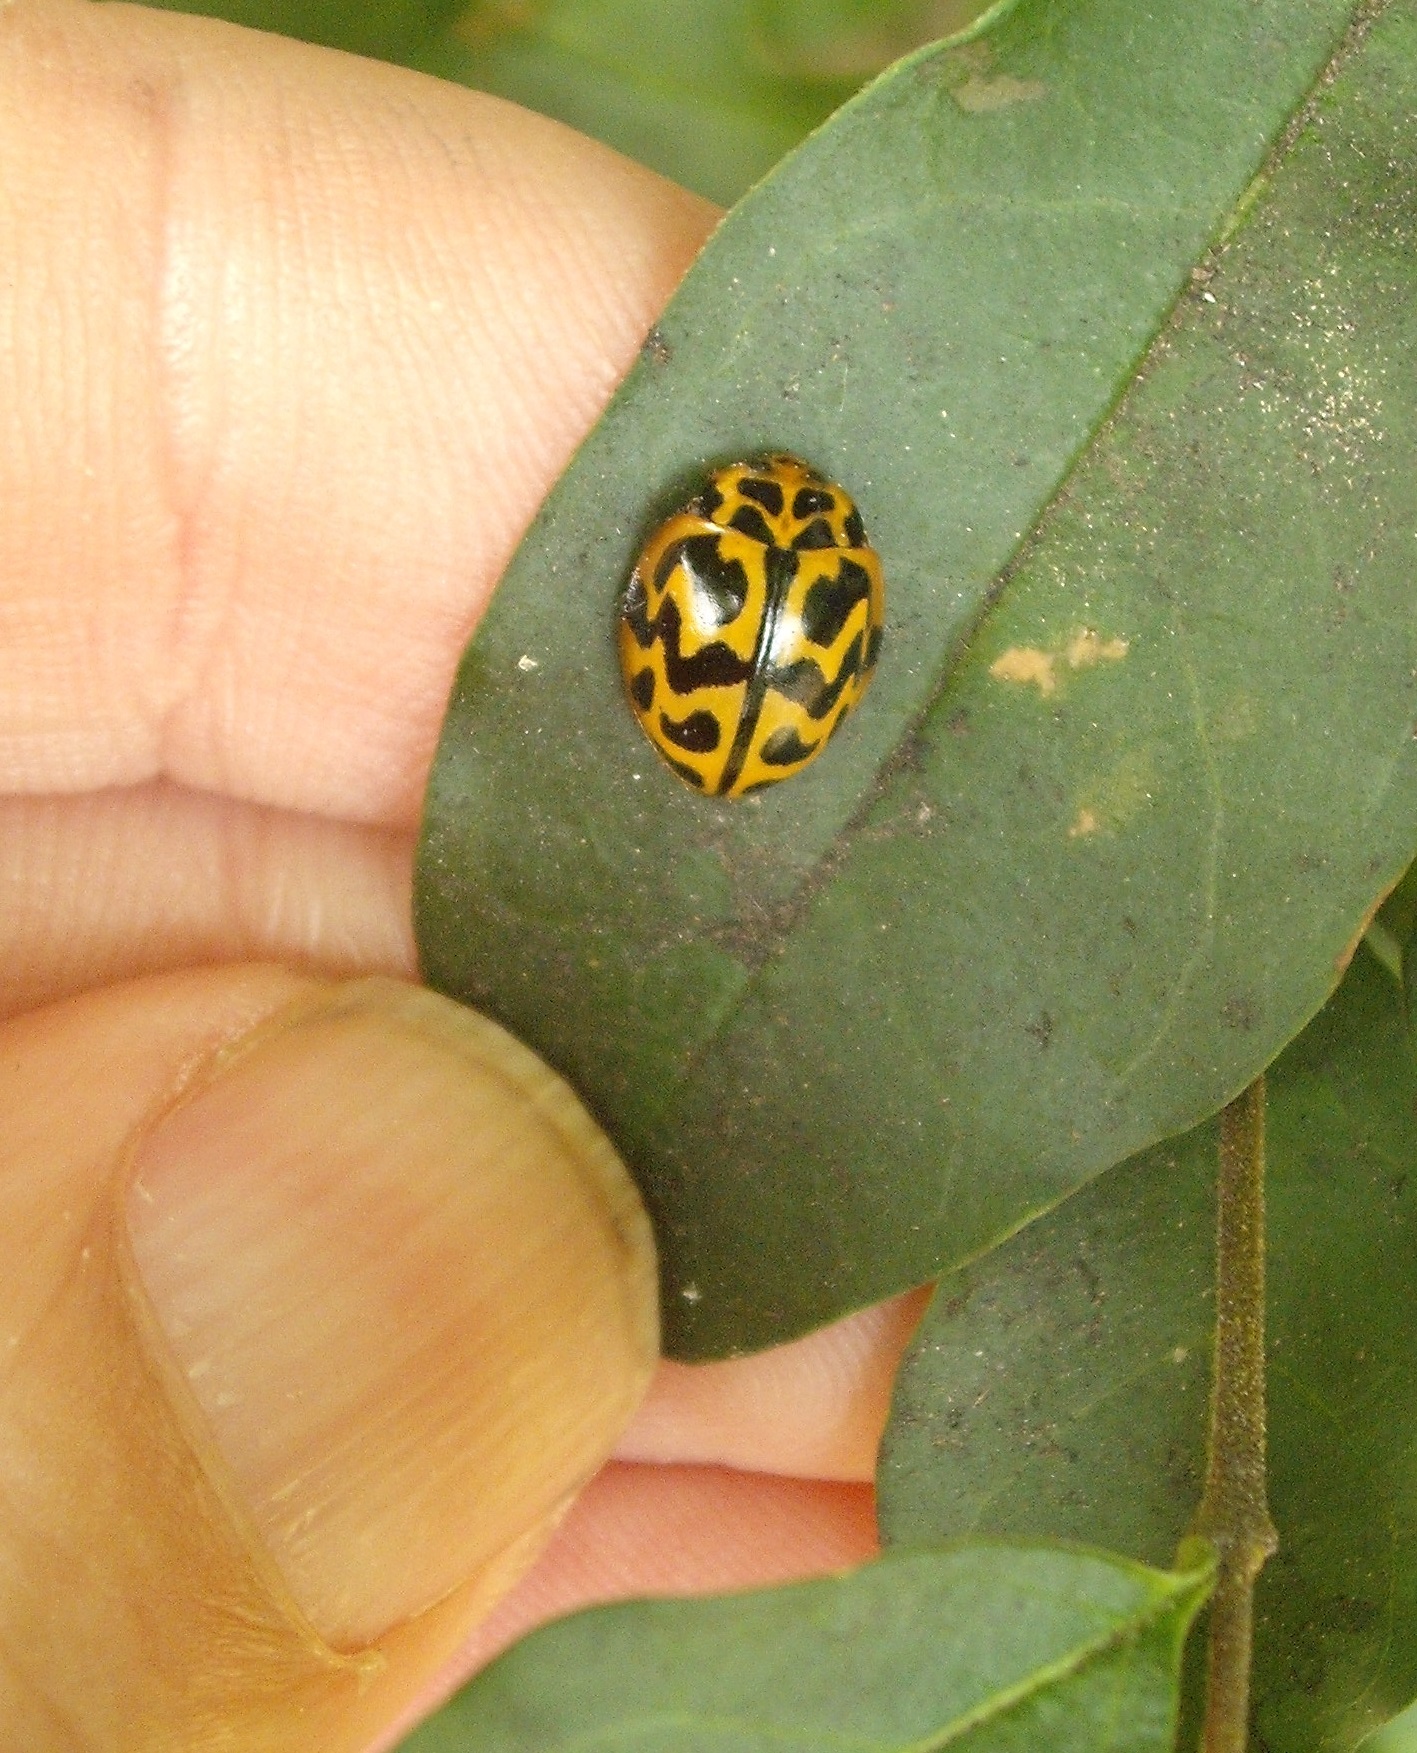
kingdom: Animalia
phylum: Arthropoda
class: Insecta
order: Coleoptera
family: Coccinellidae
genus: Cleobora
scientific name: Cleobora
